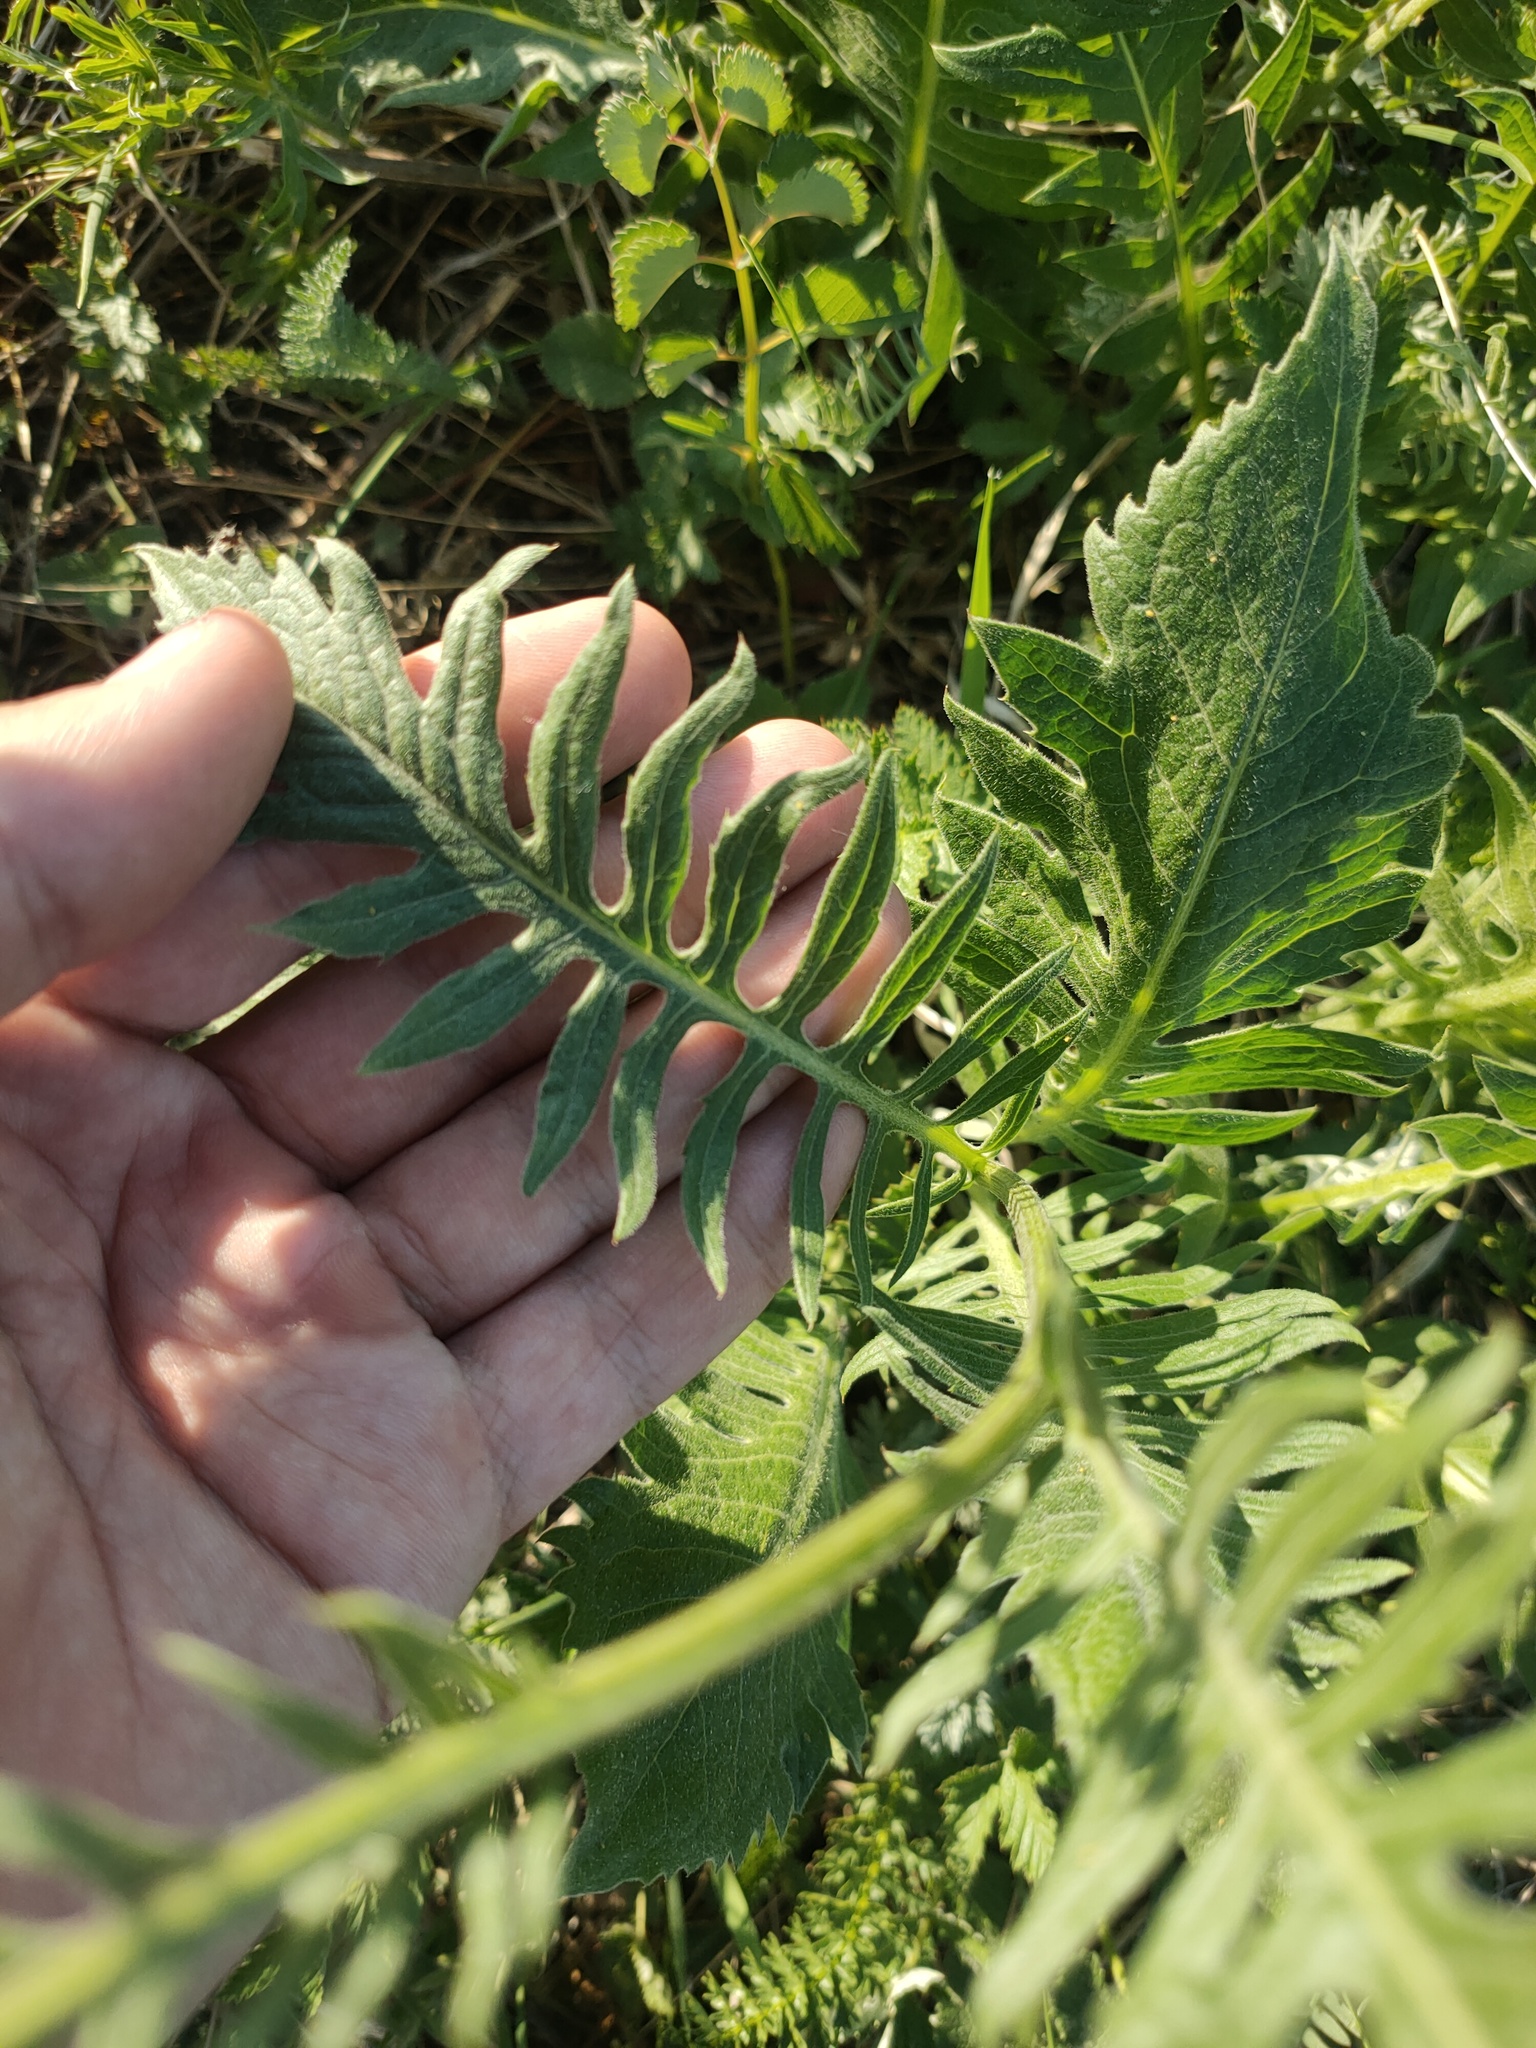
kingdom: Plantae
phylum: Tracheophyta
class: Magnoliopsida
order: Asterales
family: Asteraceae
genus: Centaurea
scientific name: Centaurea scabiosa
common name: Greater knapweed
